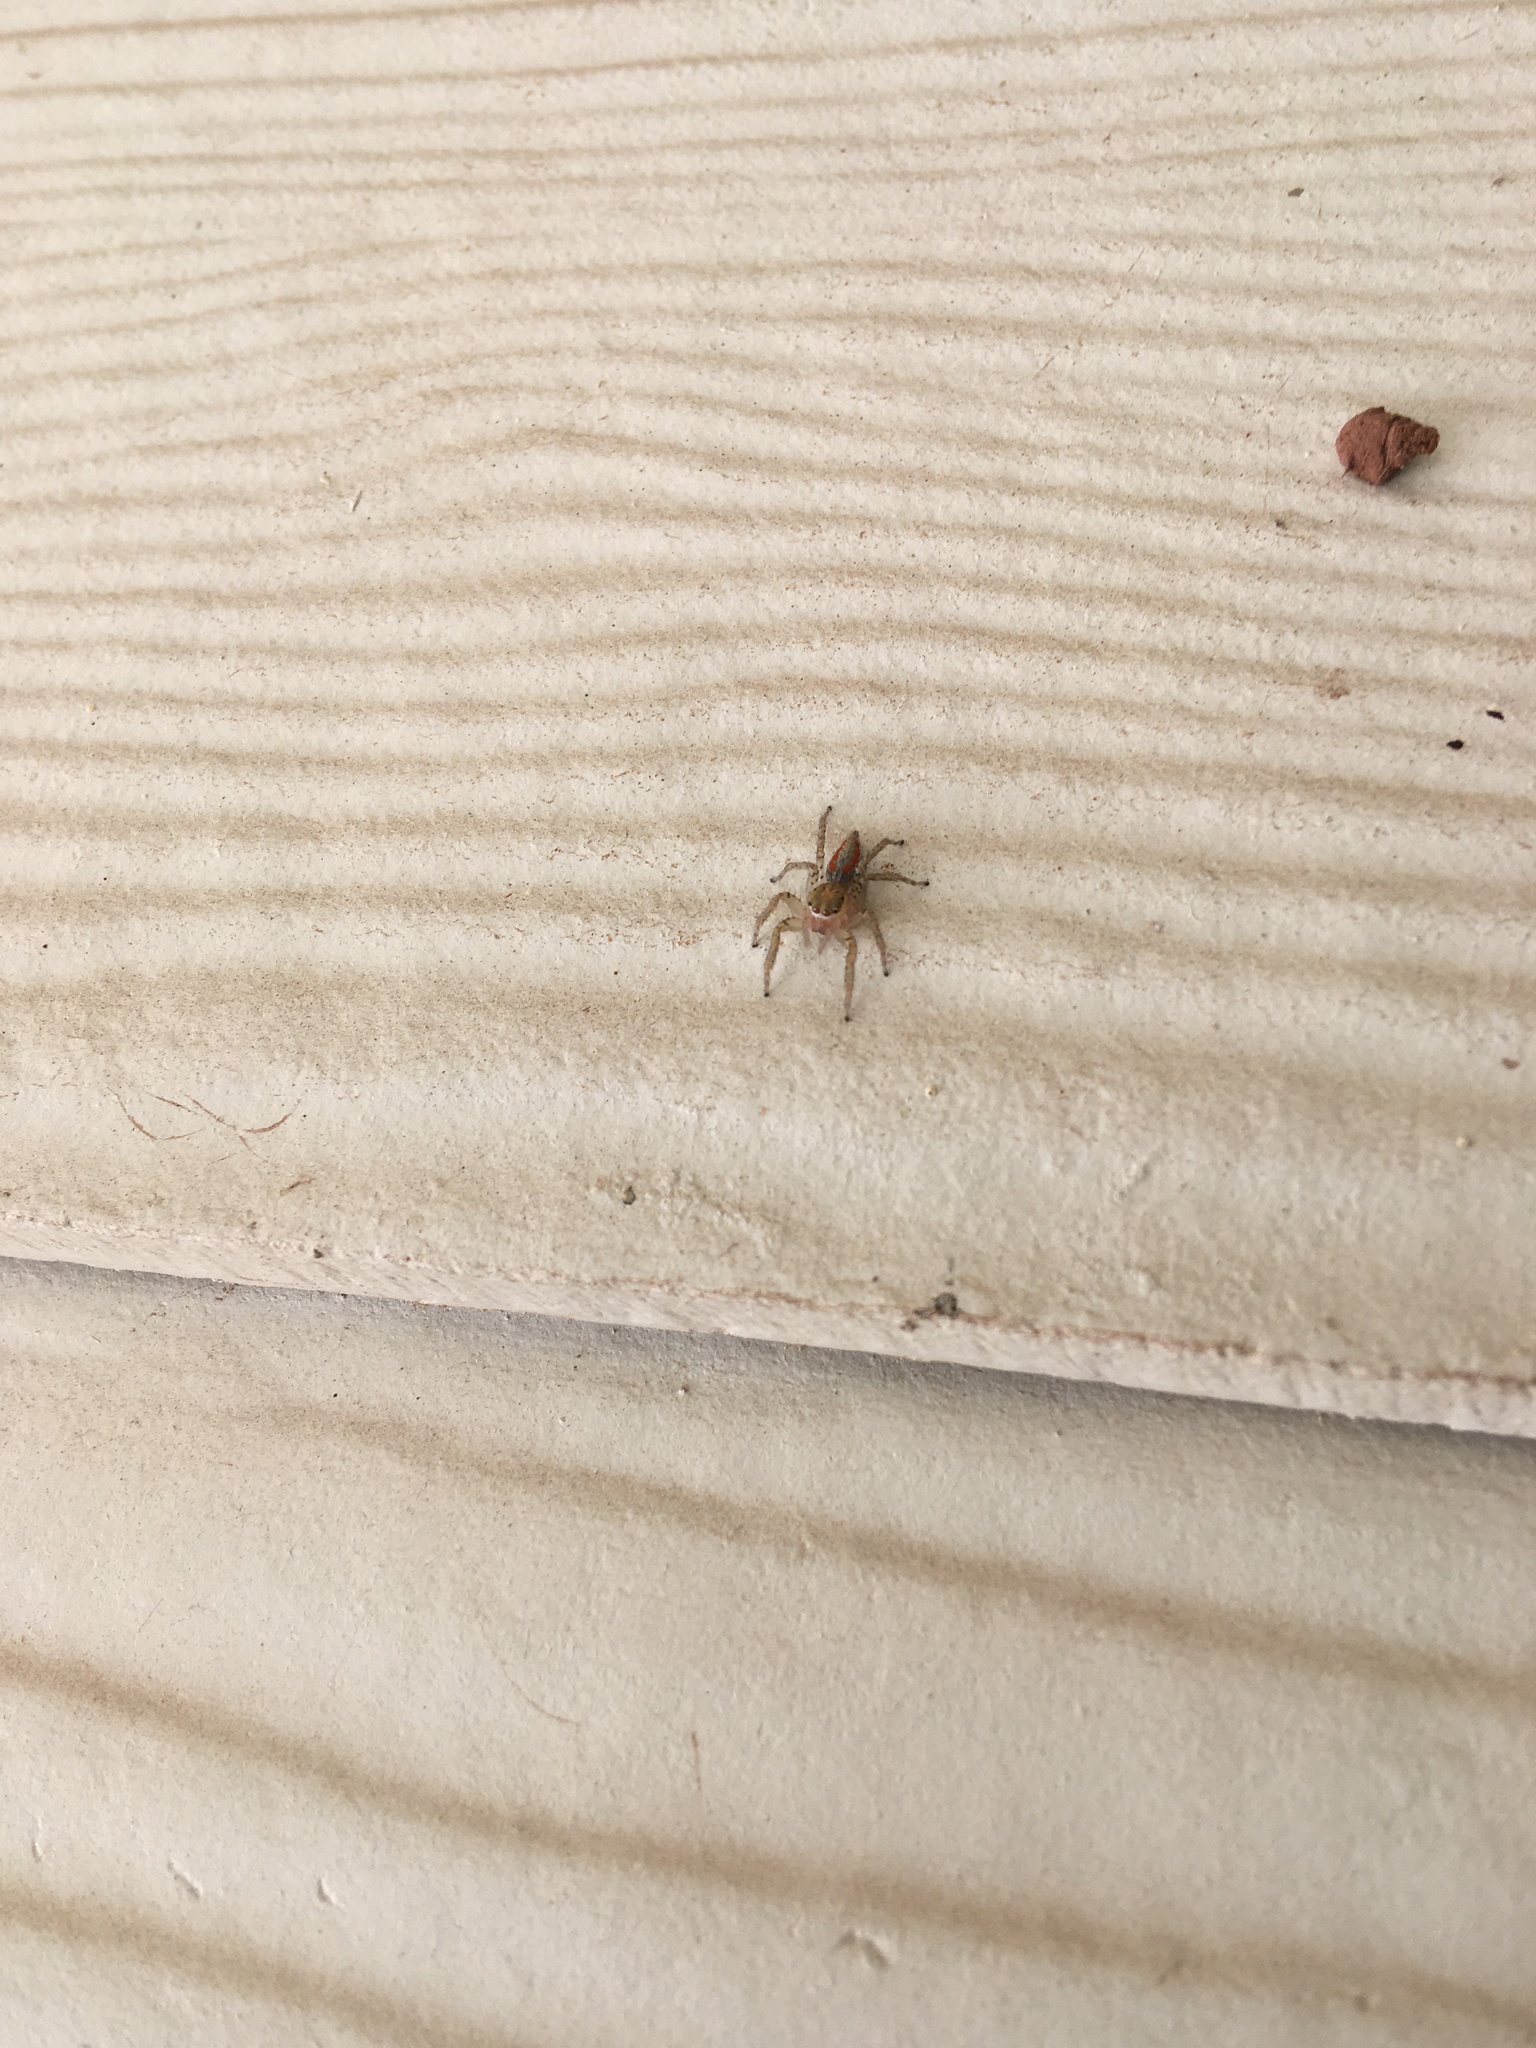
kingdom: Animalia
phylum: Arthropoda
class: Arachnida
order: Araneae
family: Salticidae
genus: Maevia
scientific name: Maevia inclemens
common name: Dimorphic jumper
